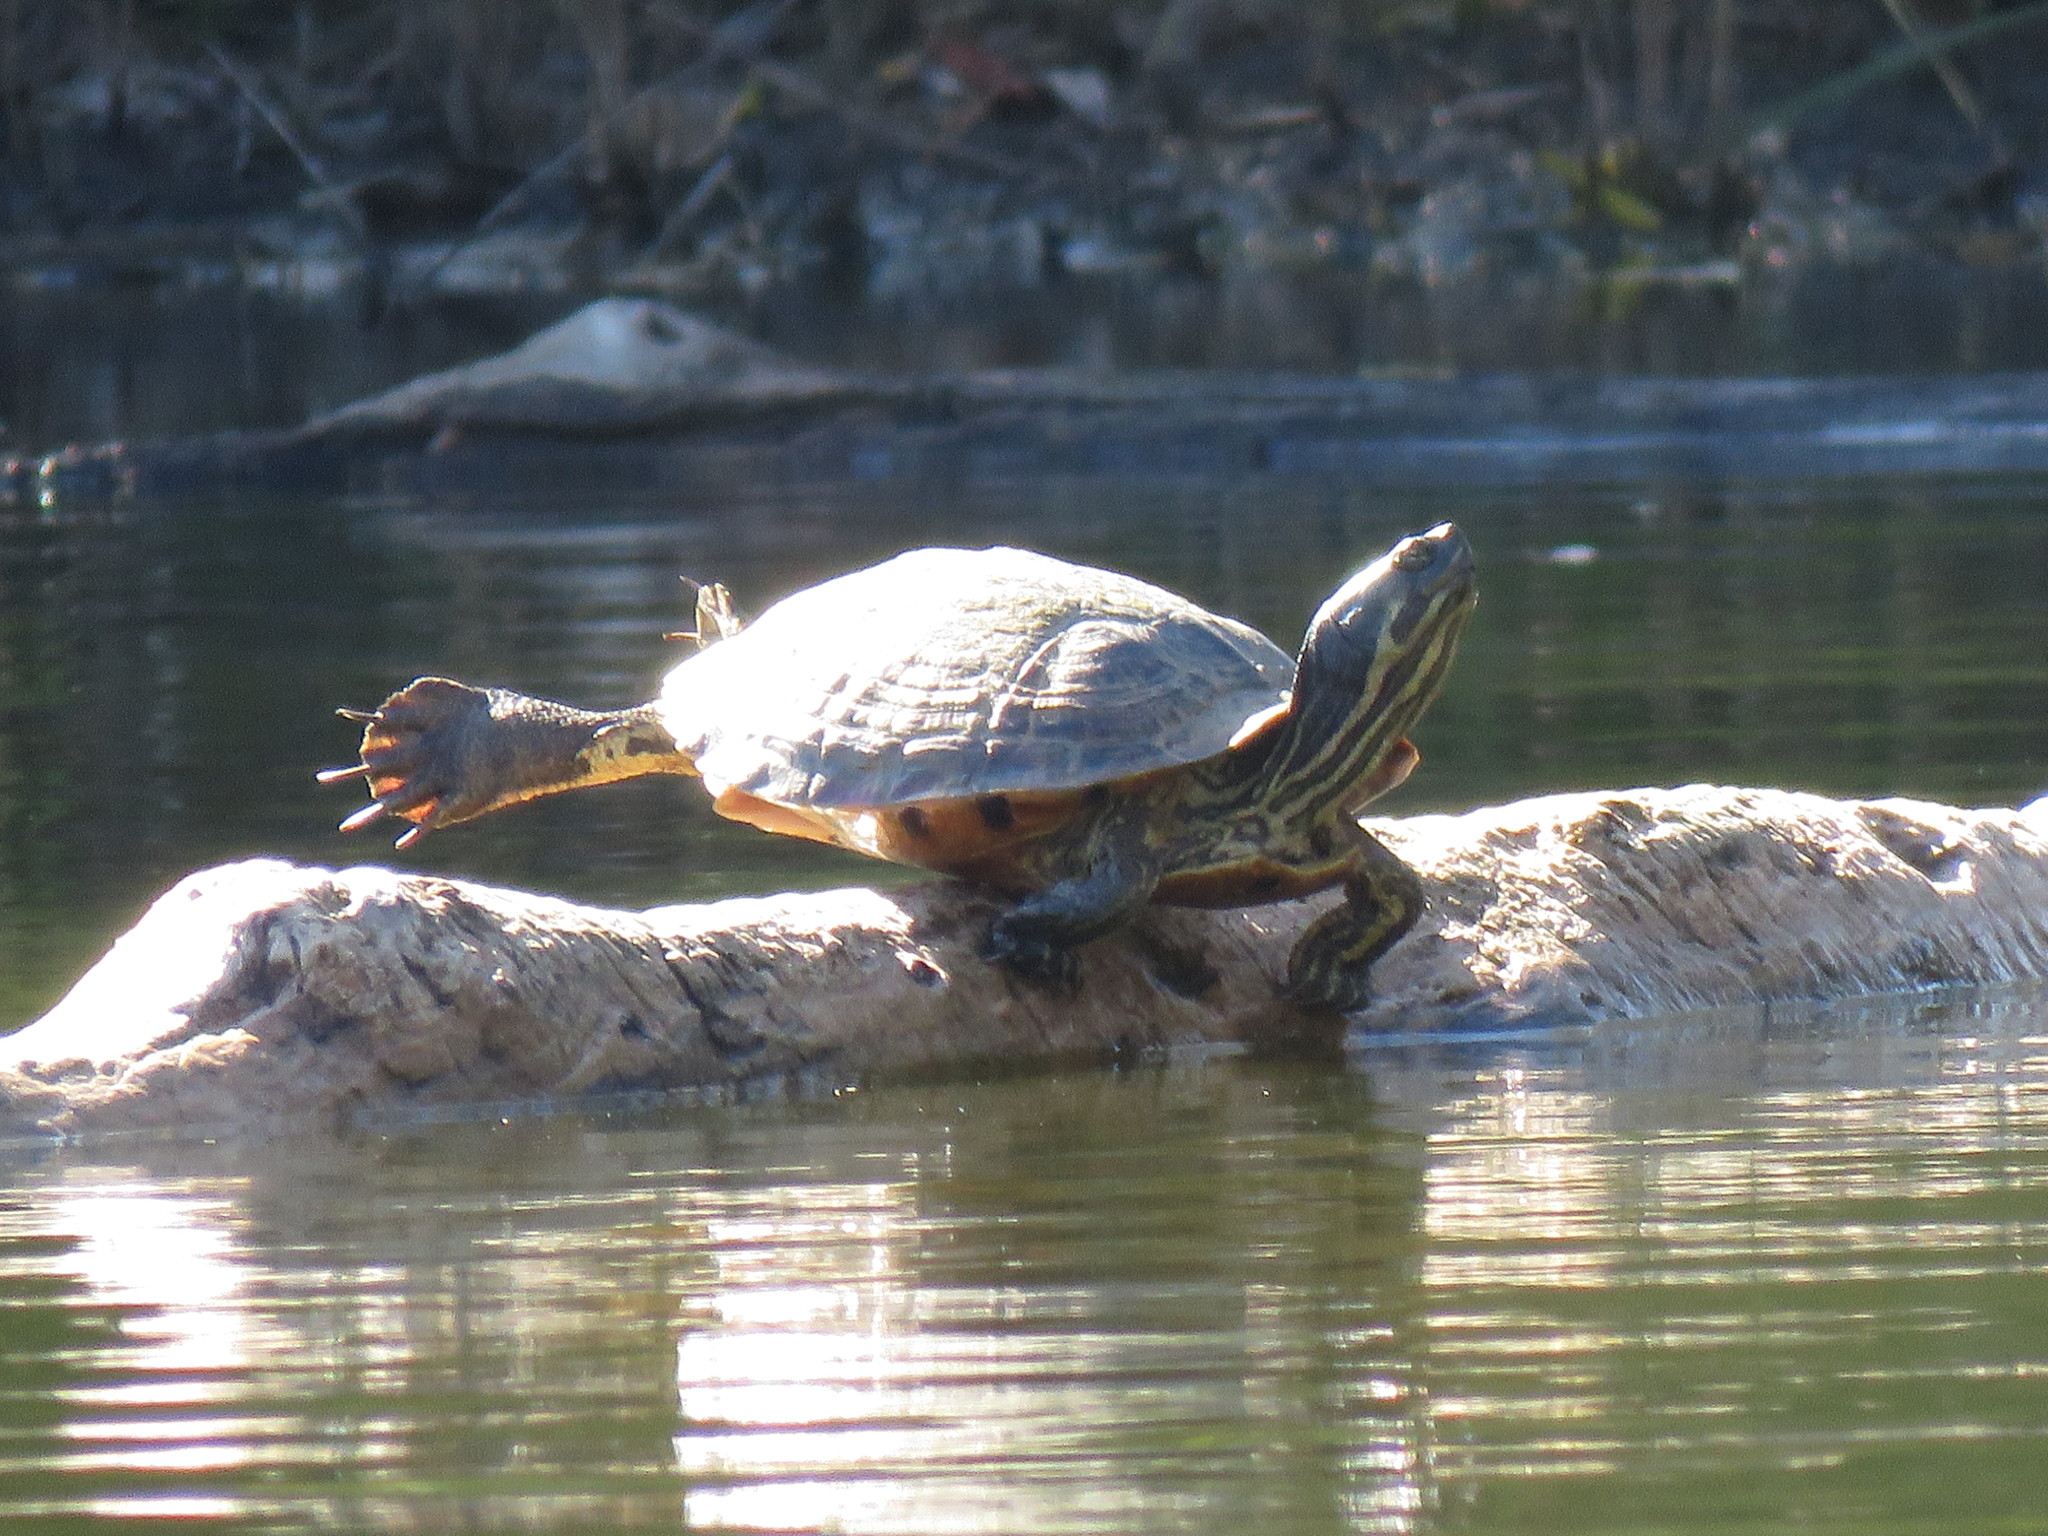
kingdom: Animalia
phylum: Chordata
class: Testudines
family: Emydidae
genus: Trachemys
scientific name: Trachemys scripta
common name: Slider
